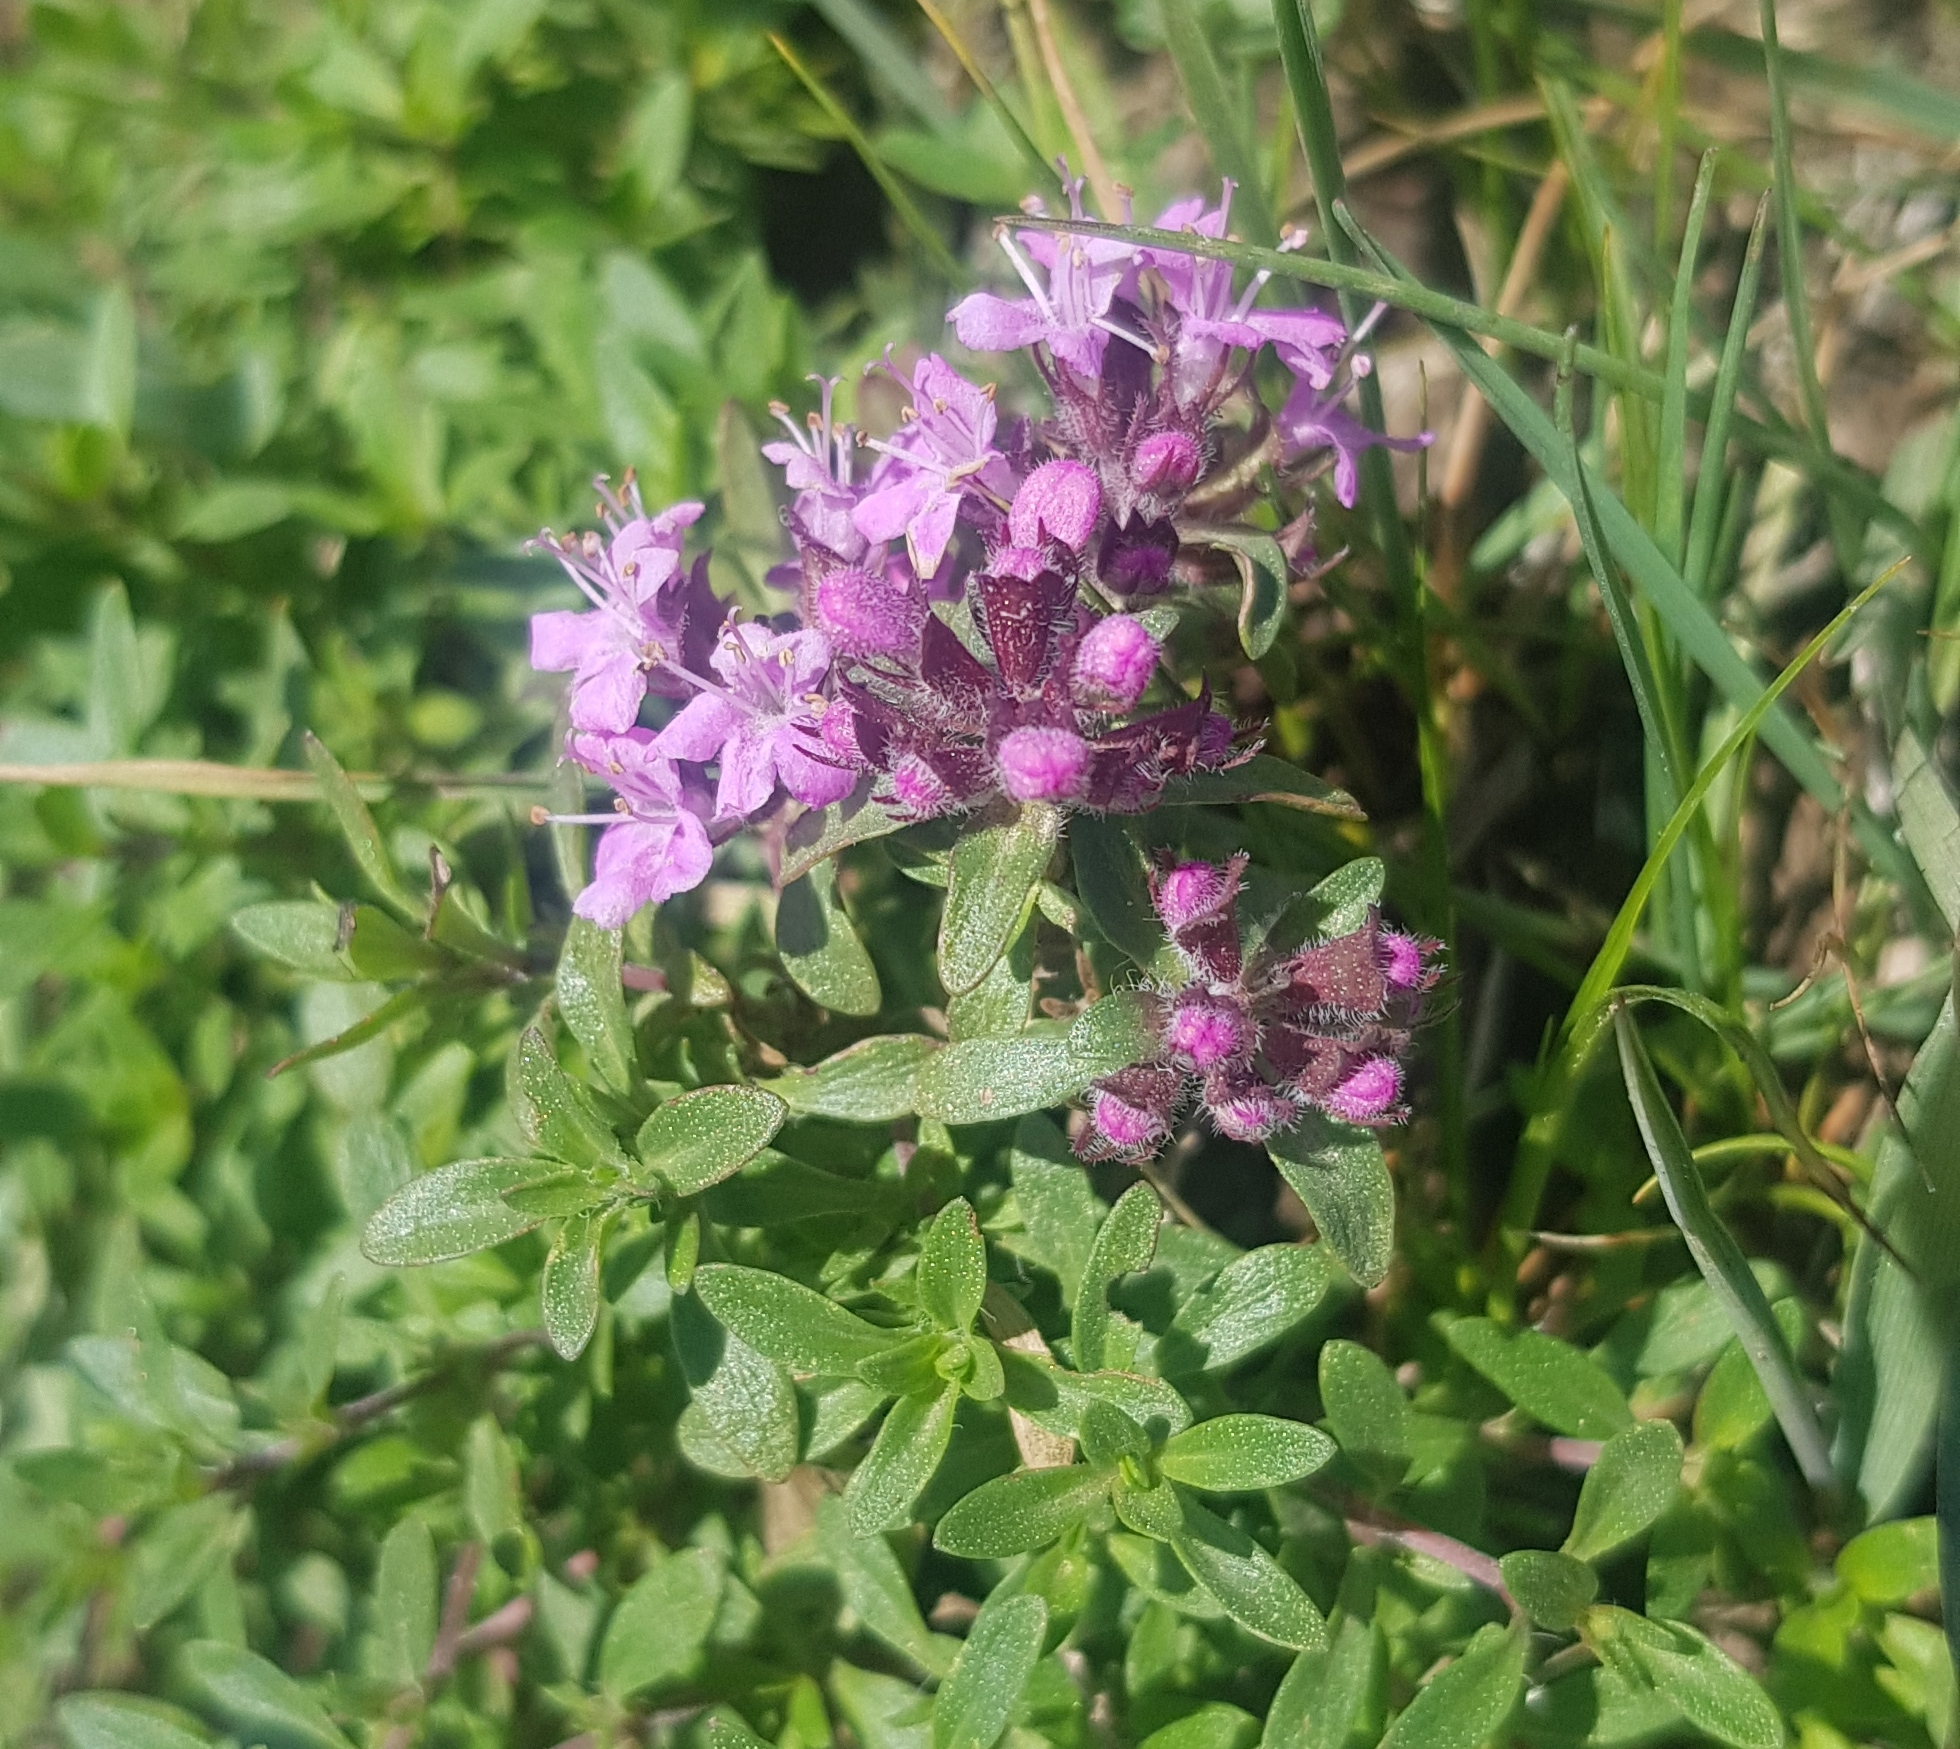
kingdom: Plantae
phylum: Tracheophyta
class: Magnoliopsida
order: Lamiales
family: Lamiaceae
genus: Thymus
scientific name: Thymus baicalensis
